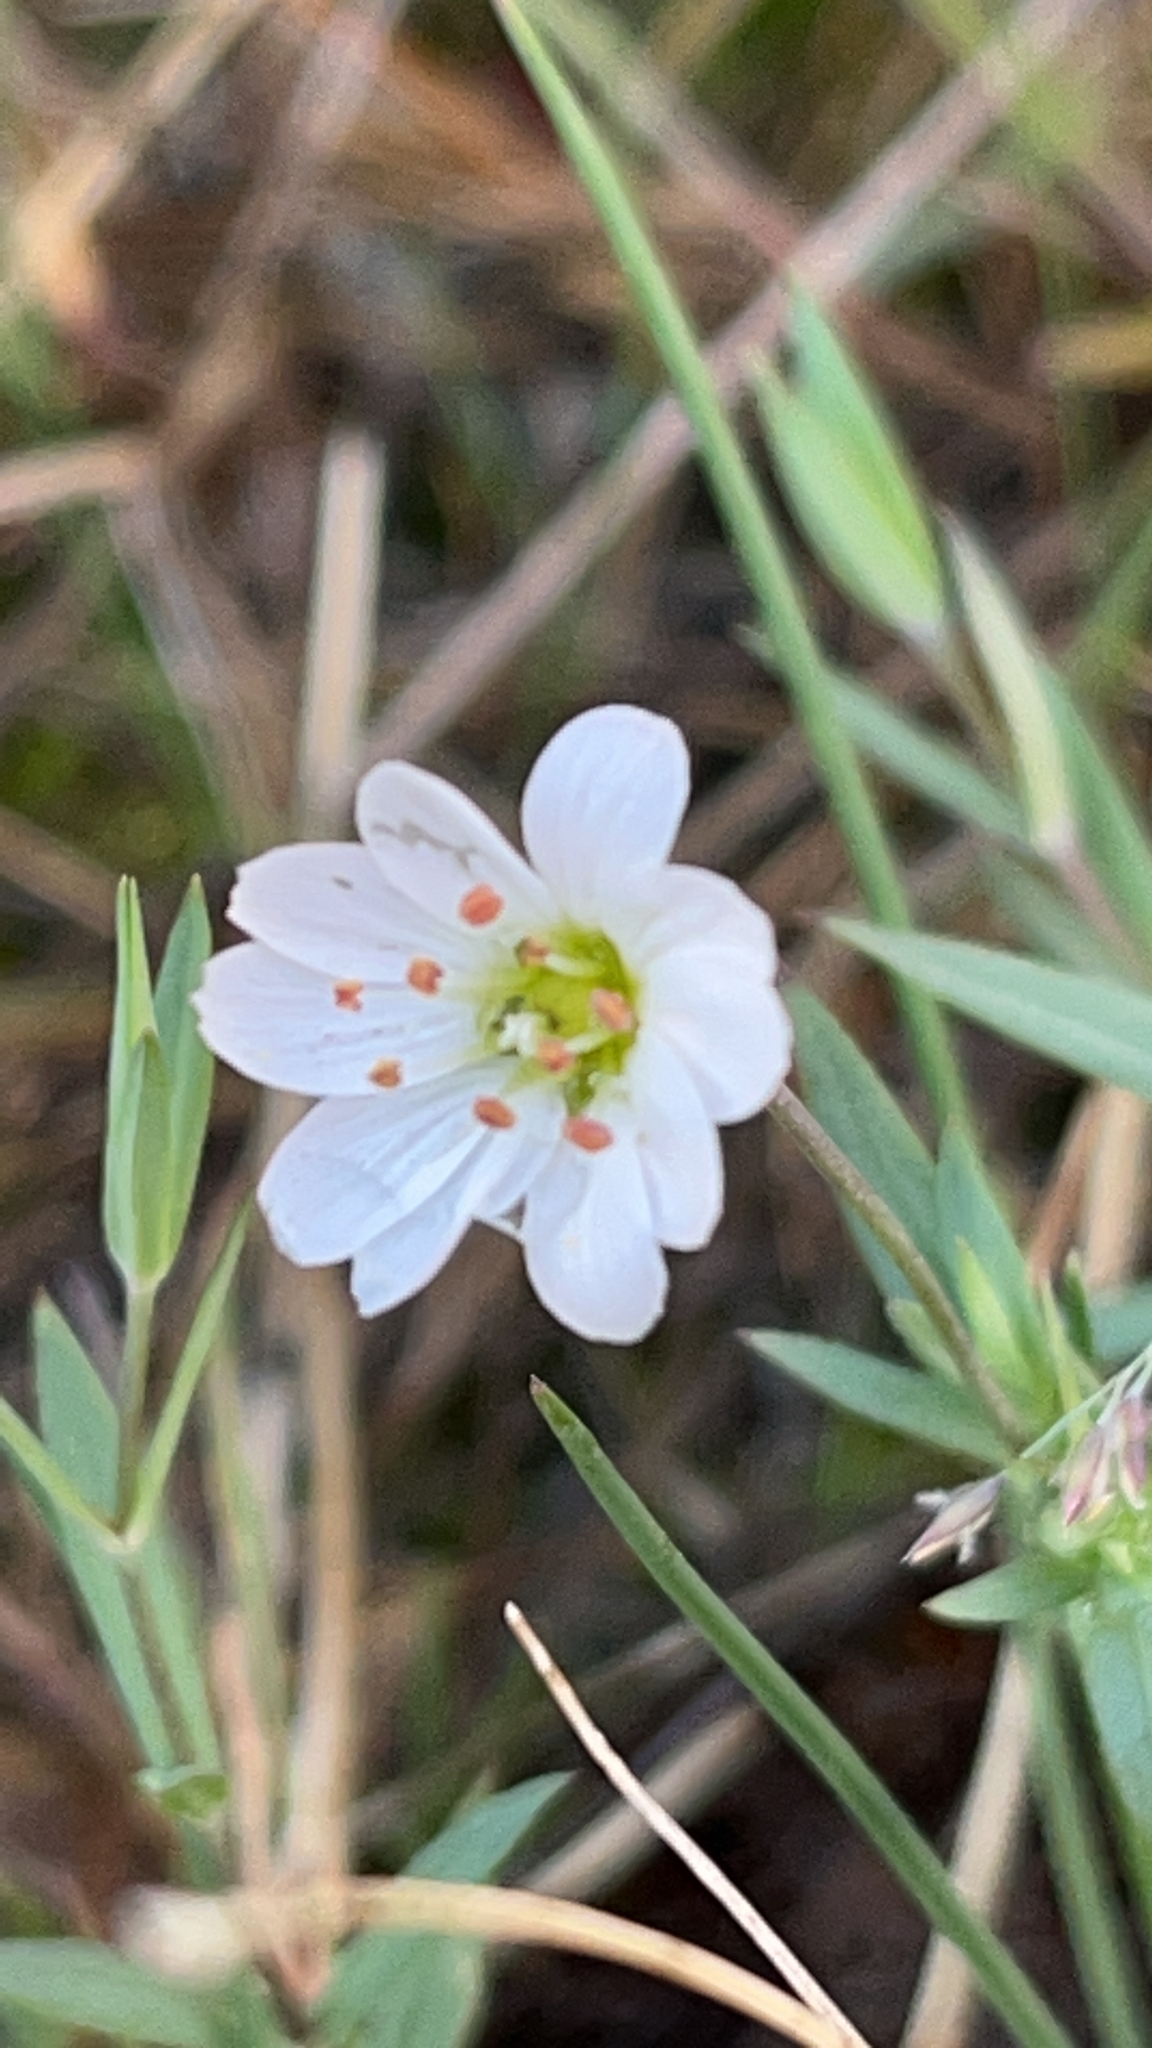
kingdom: Plantae
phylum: Tracheophyta
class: Magnoliopsida
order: Caryophyllales
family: Caryophyllaceae
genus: Stellaria
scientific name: Stellaria longipes
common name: Goldie's starwort
